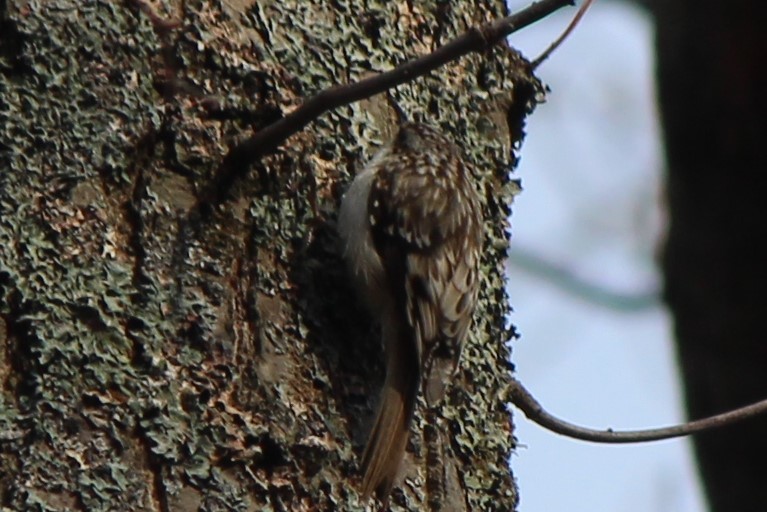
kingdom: Animalia
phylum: Chordata
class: Aves
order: Passeriformes
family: Certhiidae
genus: Certhia
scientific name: Certhia americana
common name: Brown creeper
